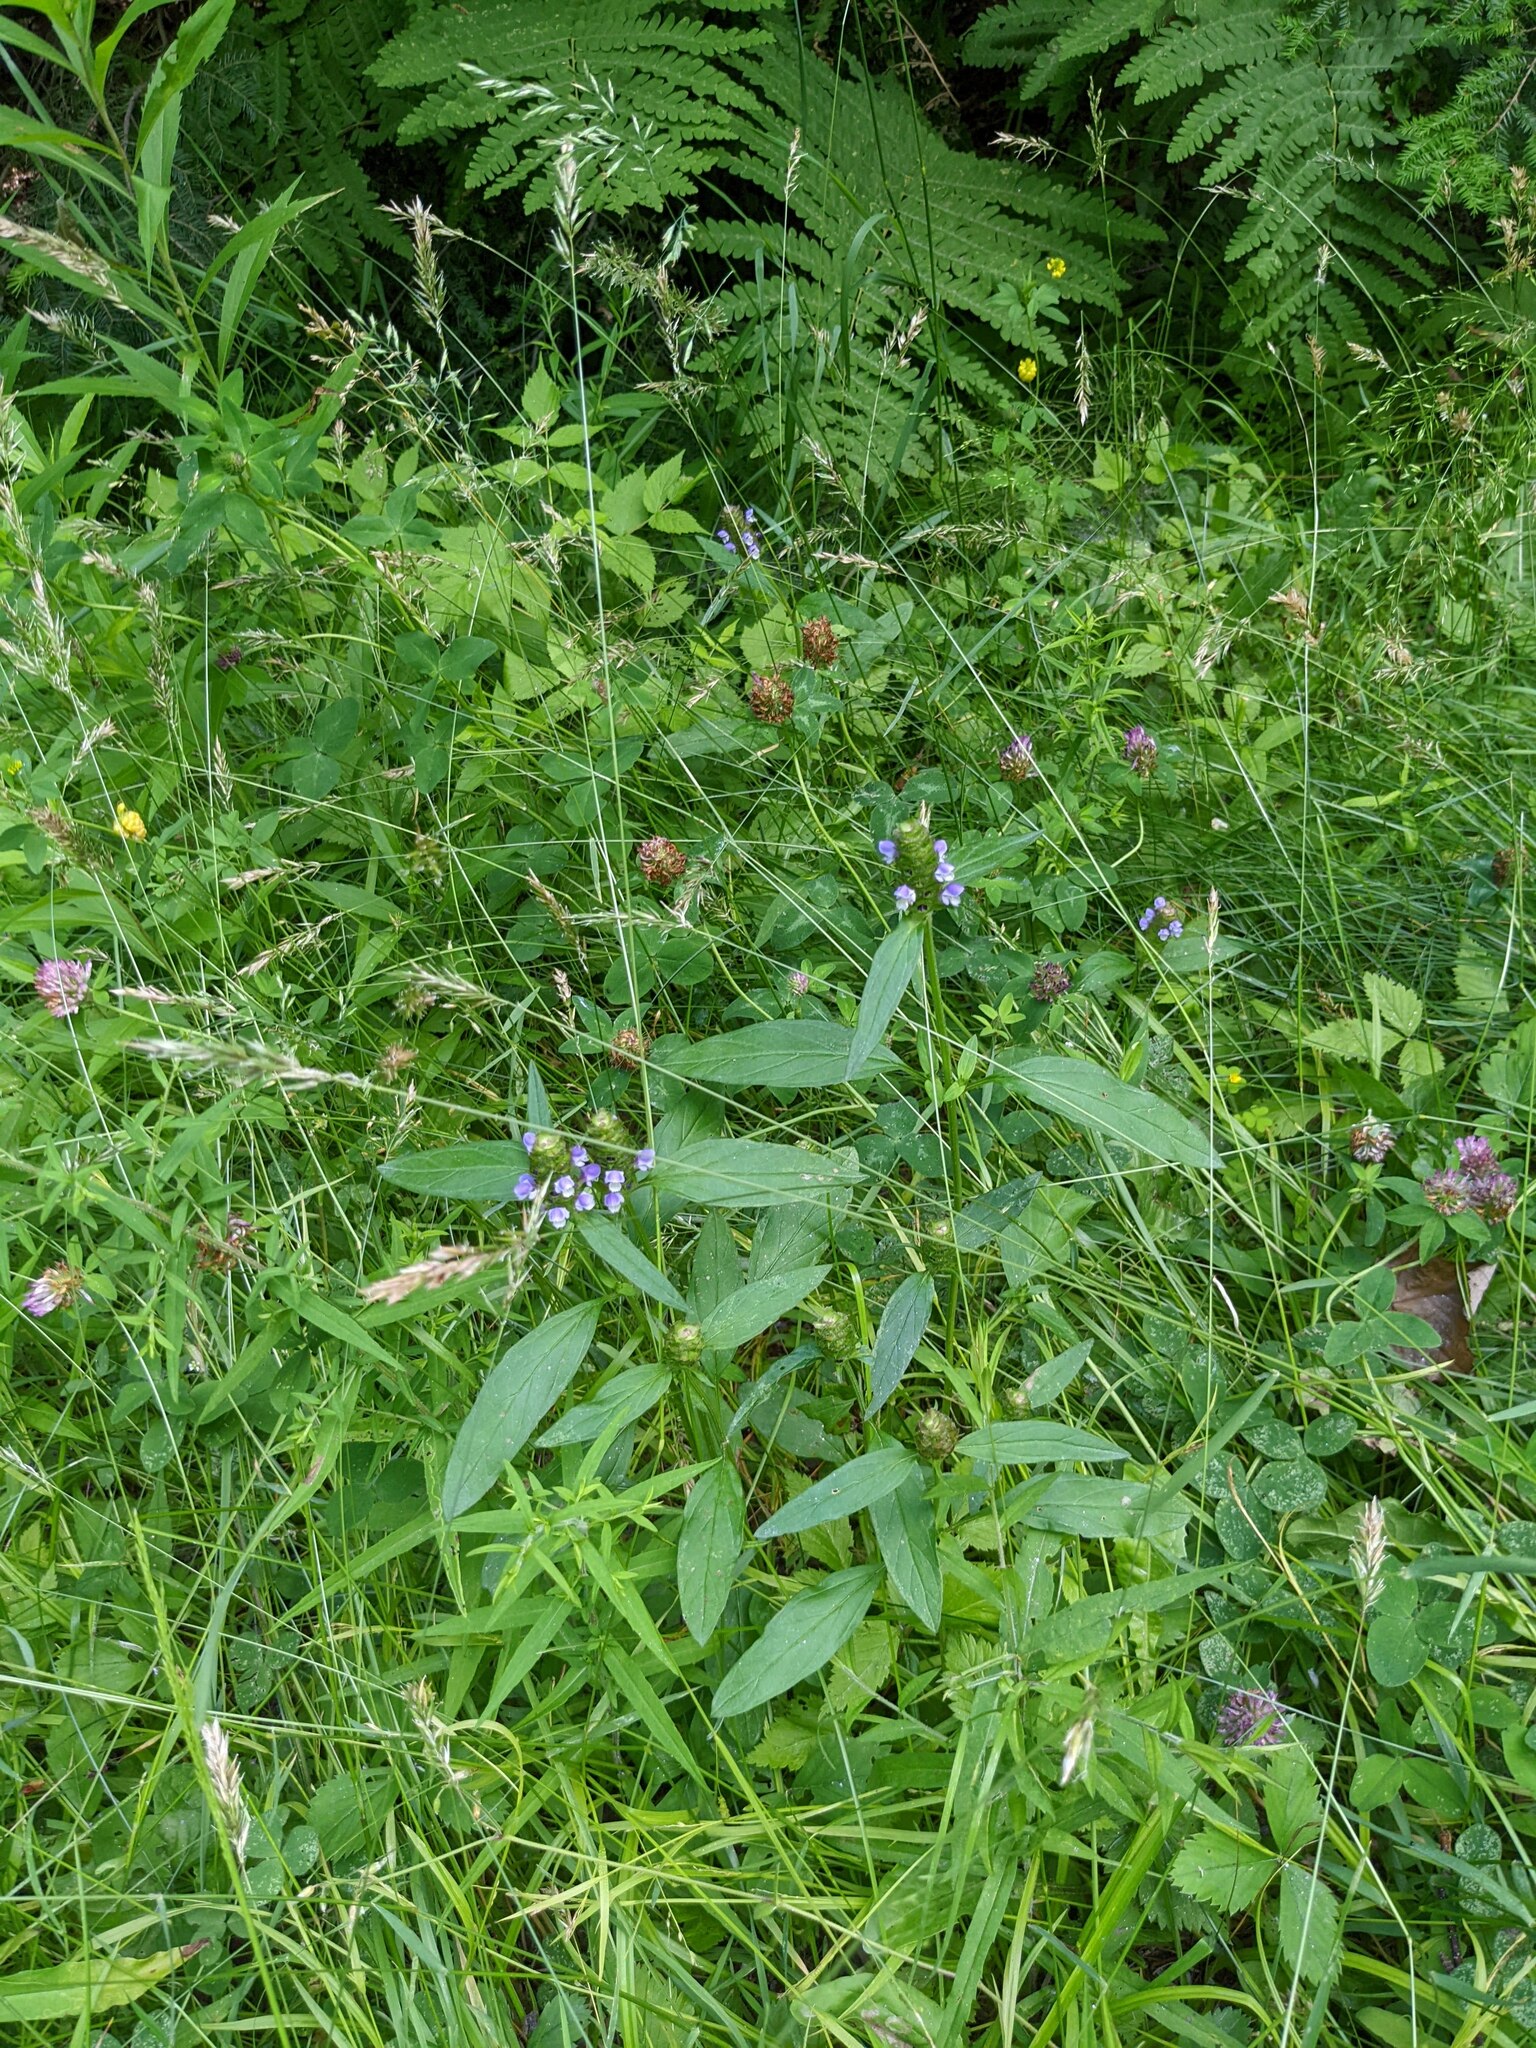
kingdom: Plantae
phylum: Tracheophyta
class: Magnoliopsida
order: Lamiales
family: Lamiaceae
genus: Prunella
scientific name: Prunella vulgaris
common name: Heal-all
